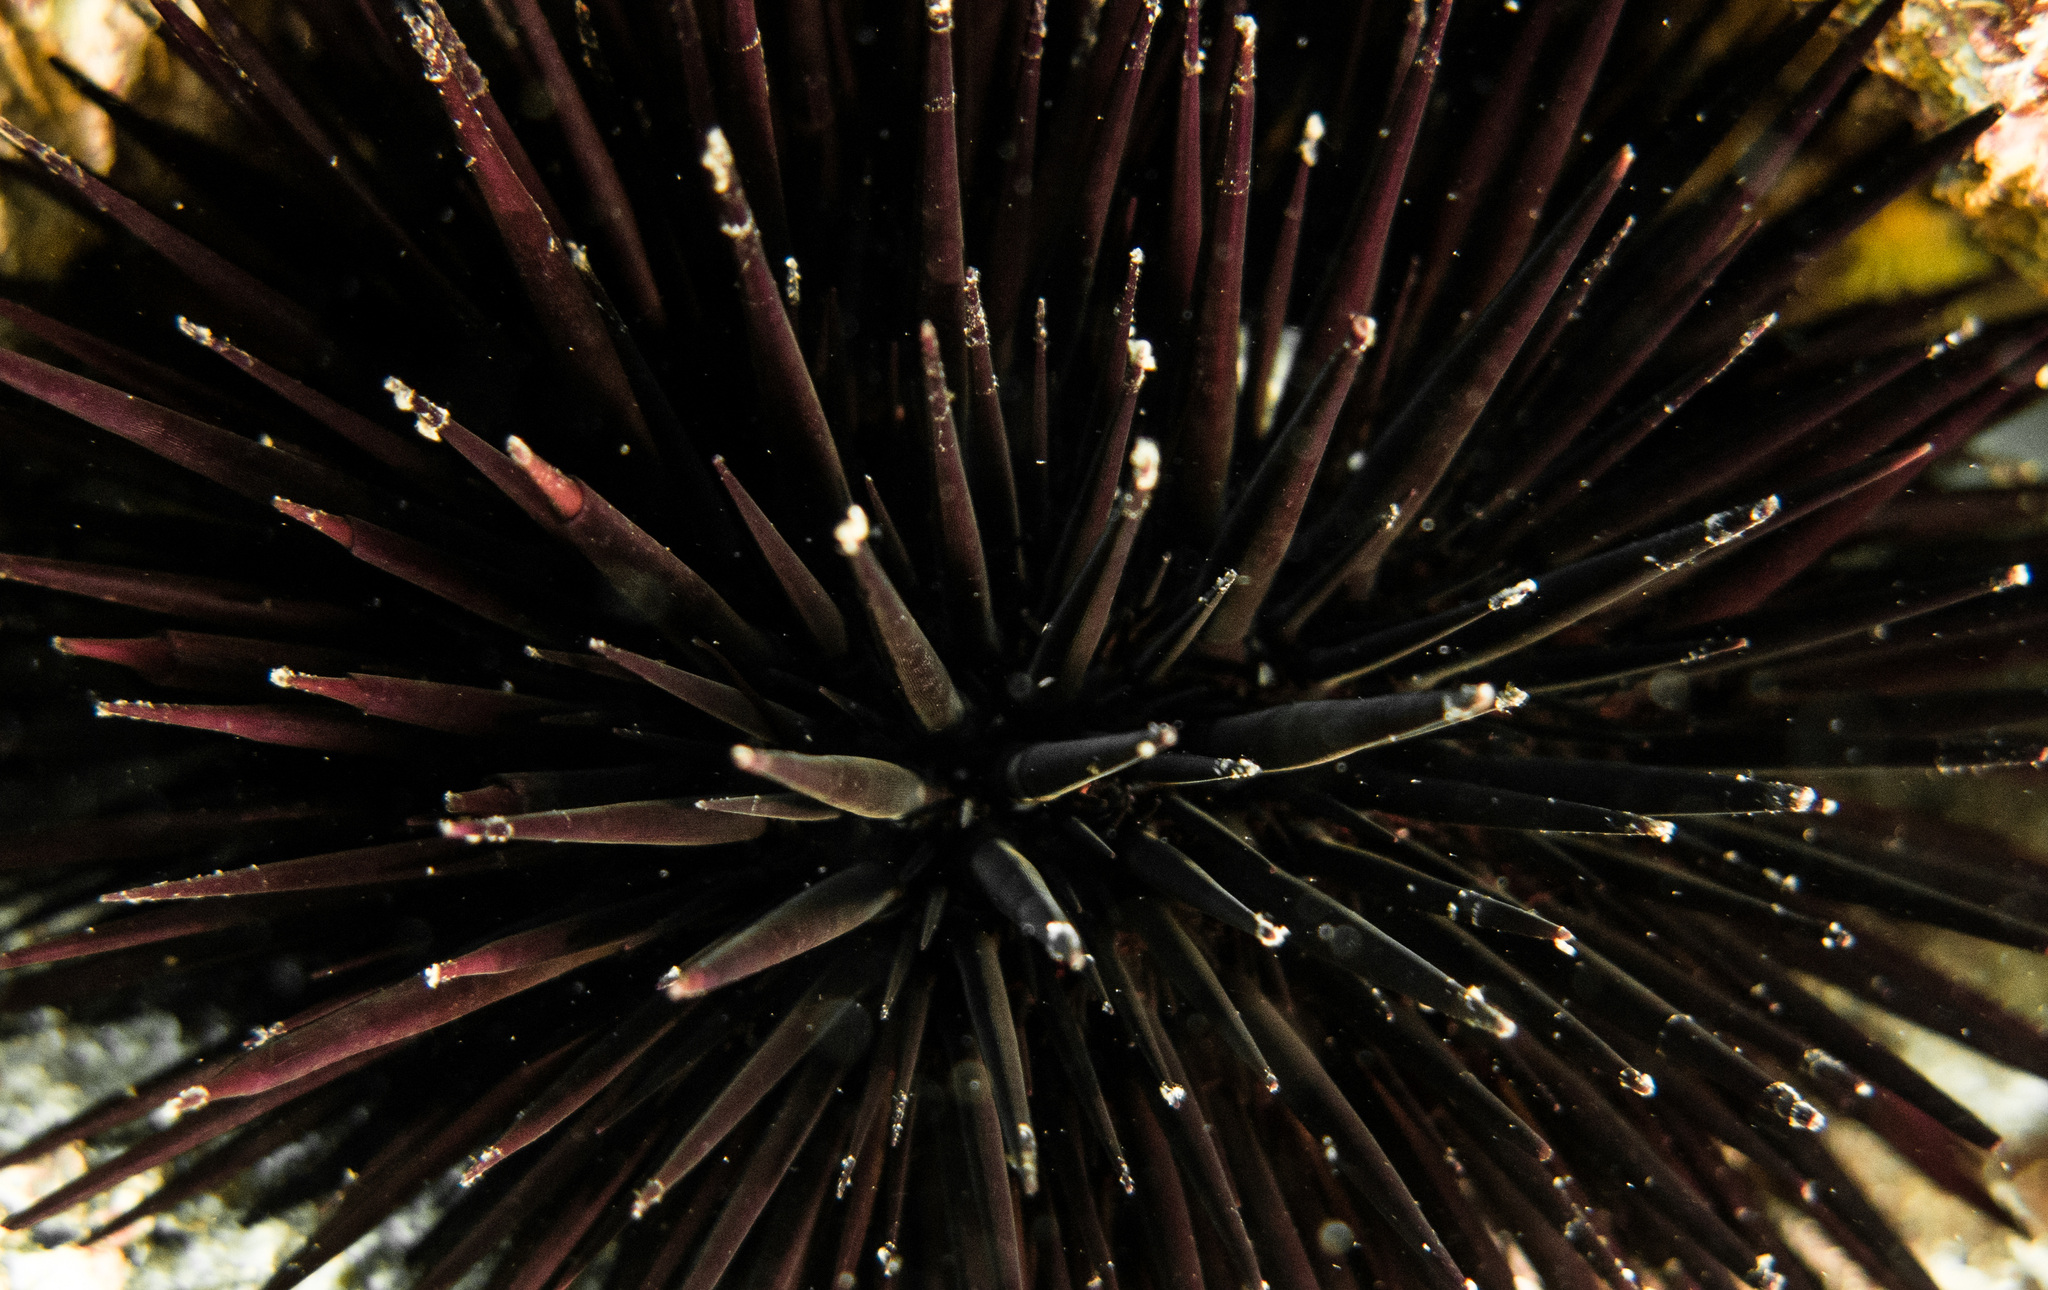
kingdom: Animalia
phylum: Echinodermata
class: Echinoidea
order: Camarodonta
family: Echinometridae
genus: Echinometra
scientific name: Echinometra lucunter
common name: Rock urchin
